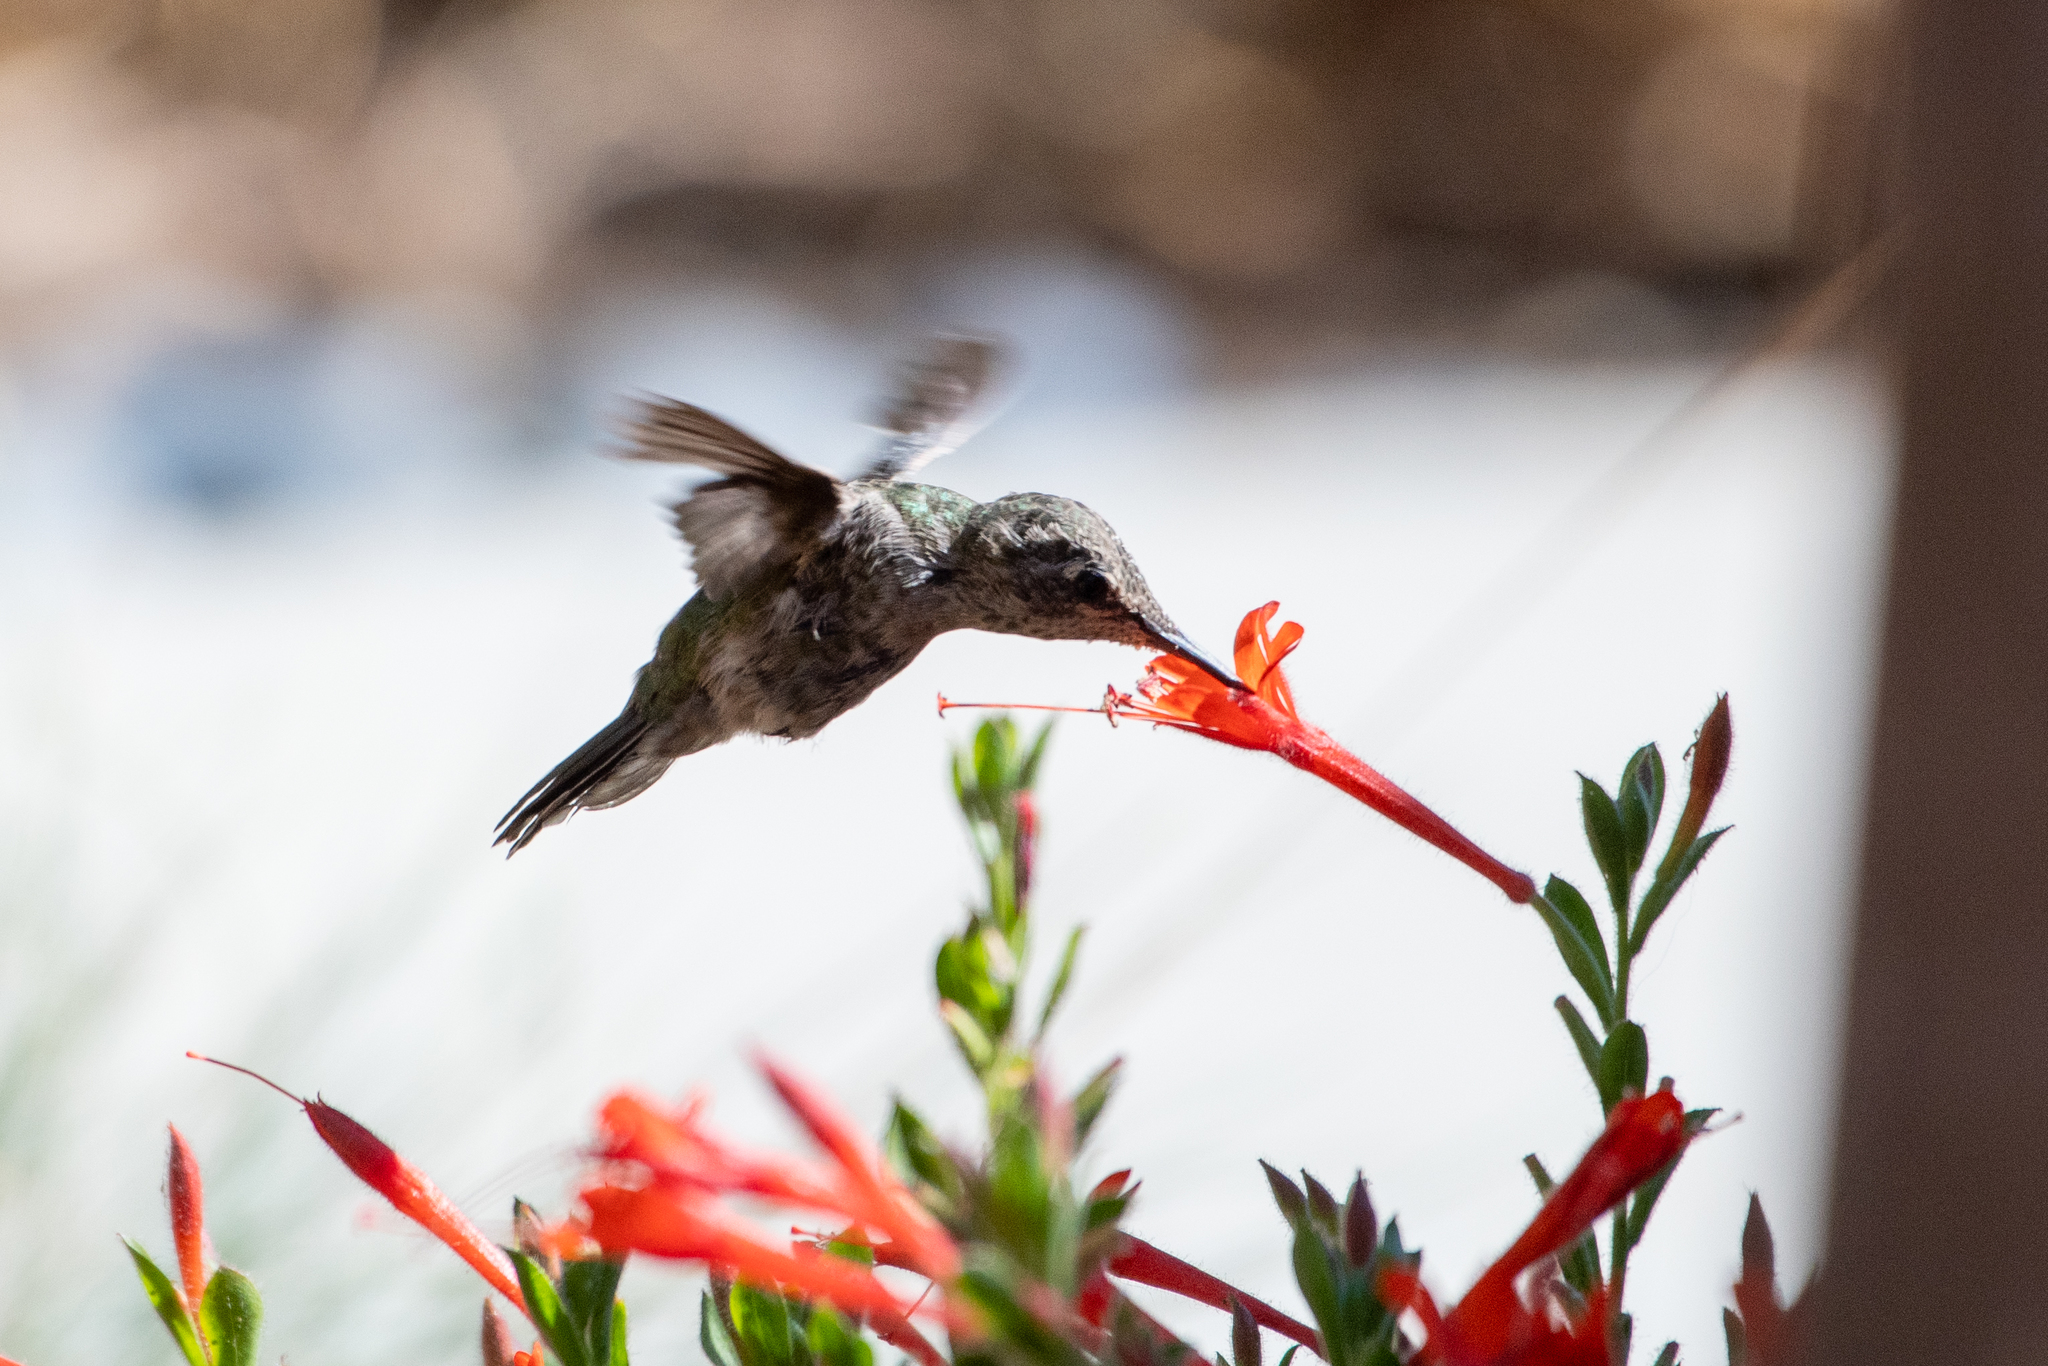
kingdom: Animalia
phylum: Chordata
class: Aves
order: Apodiformes
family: Trochilidae
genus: Calypte
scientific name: Calypte anna
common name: Anna's hummingbird
